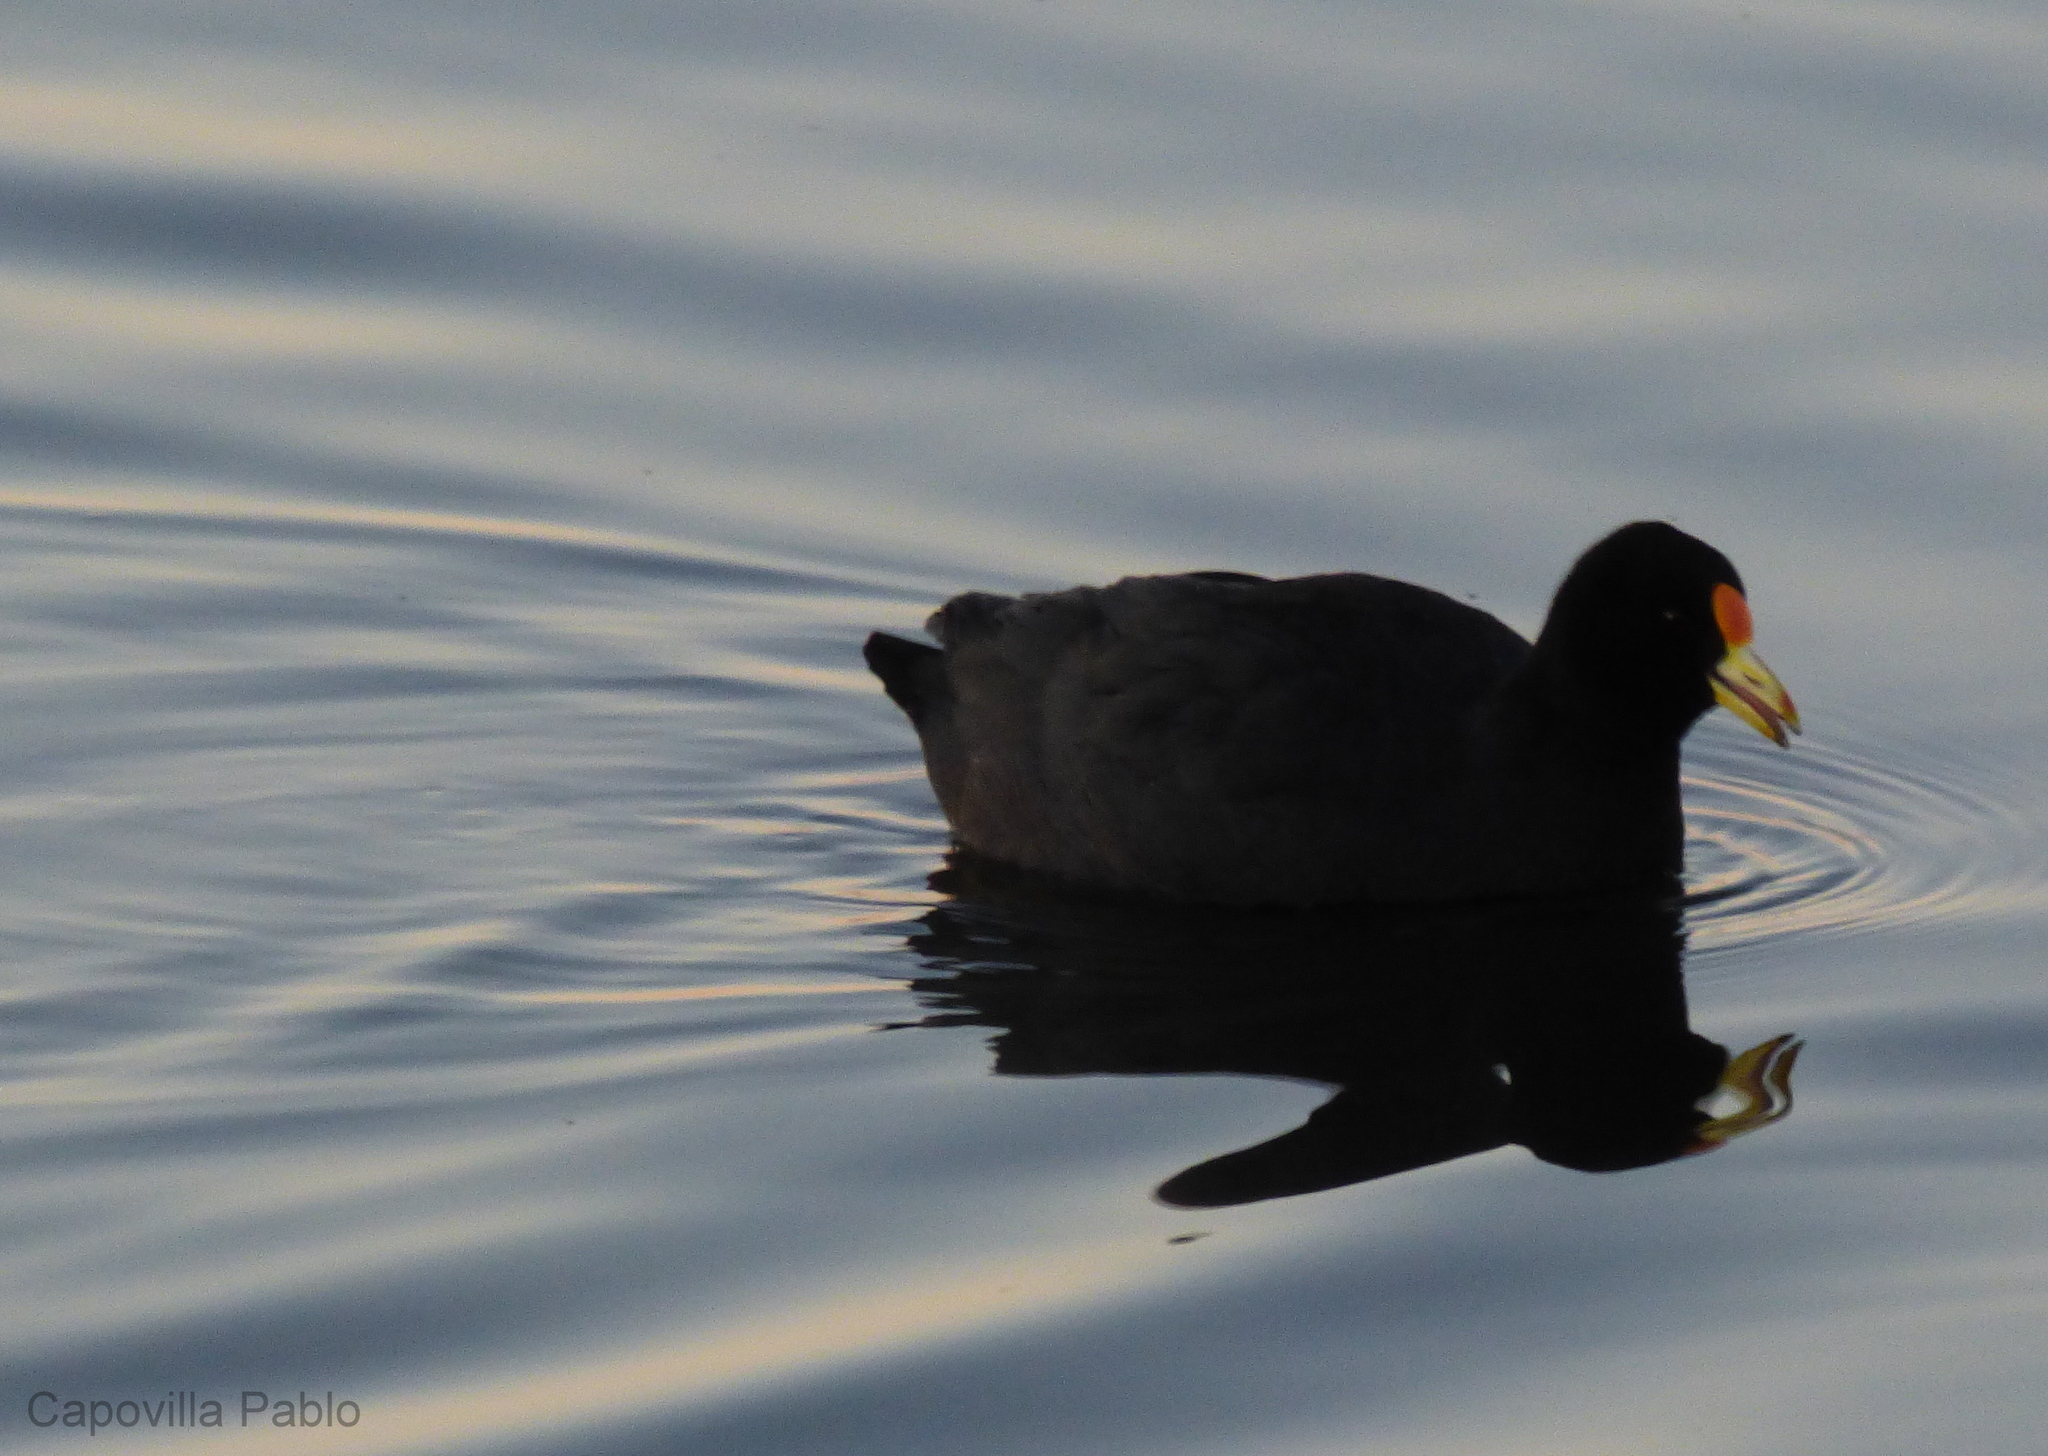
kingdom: Animalia
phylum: Chordata
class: Aves
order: Gruiformes
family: Rallidae
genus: Fulica
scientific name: Fulica leucoptera
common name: White-winged coot
